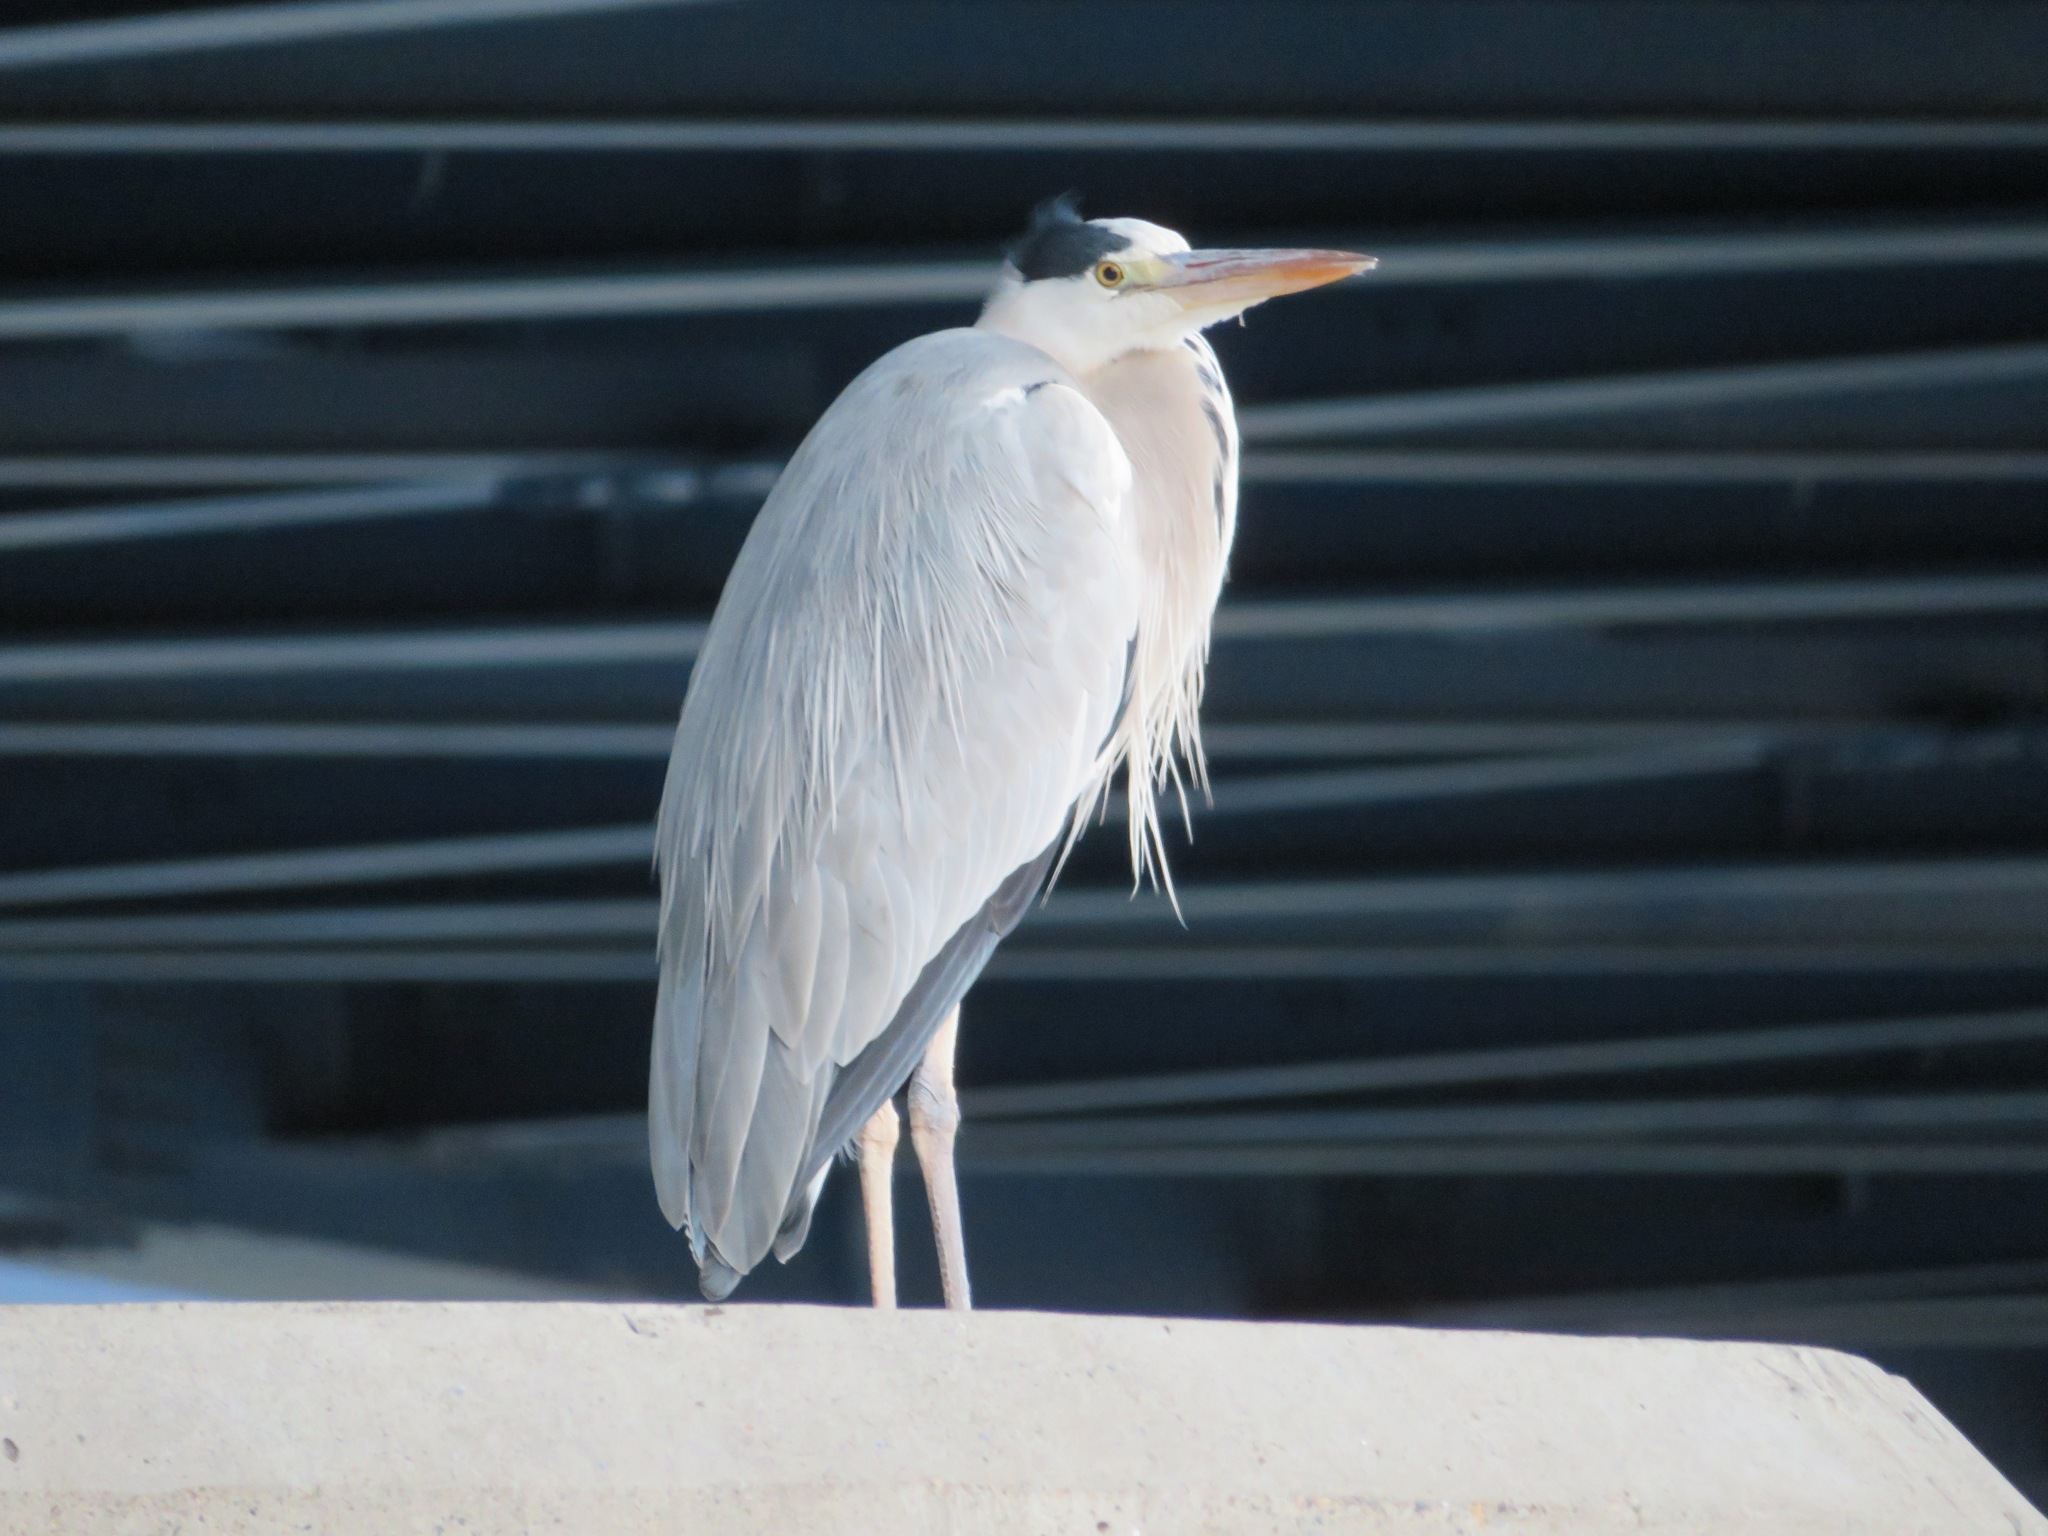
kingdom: Animalia
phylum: Chordata
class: Aves
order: Pelecaniformes
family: Ardeidae
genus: Ardea
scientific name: Ardea cinerea
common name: Grey heron
